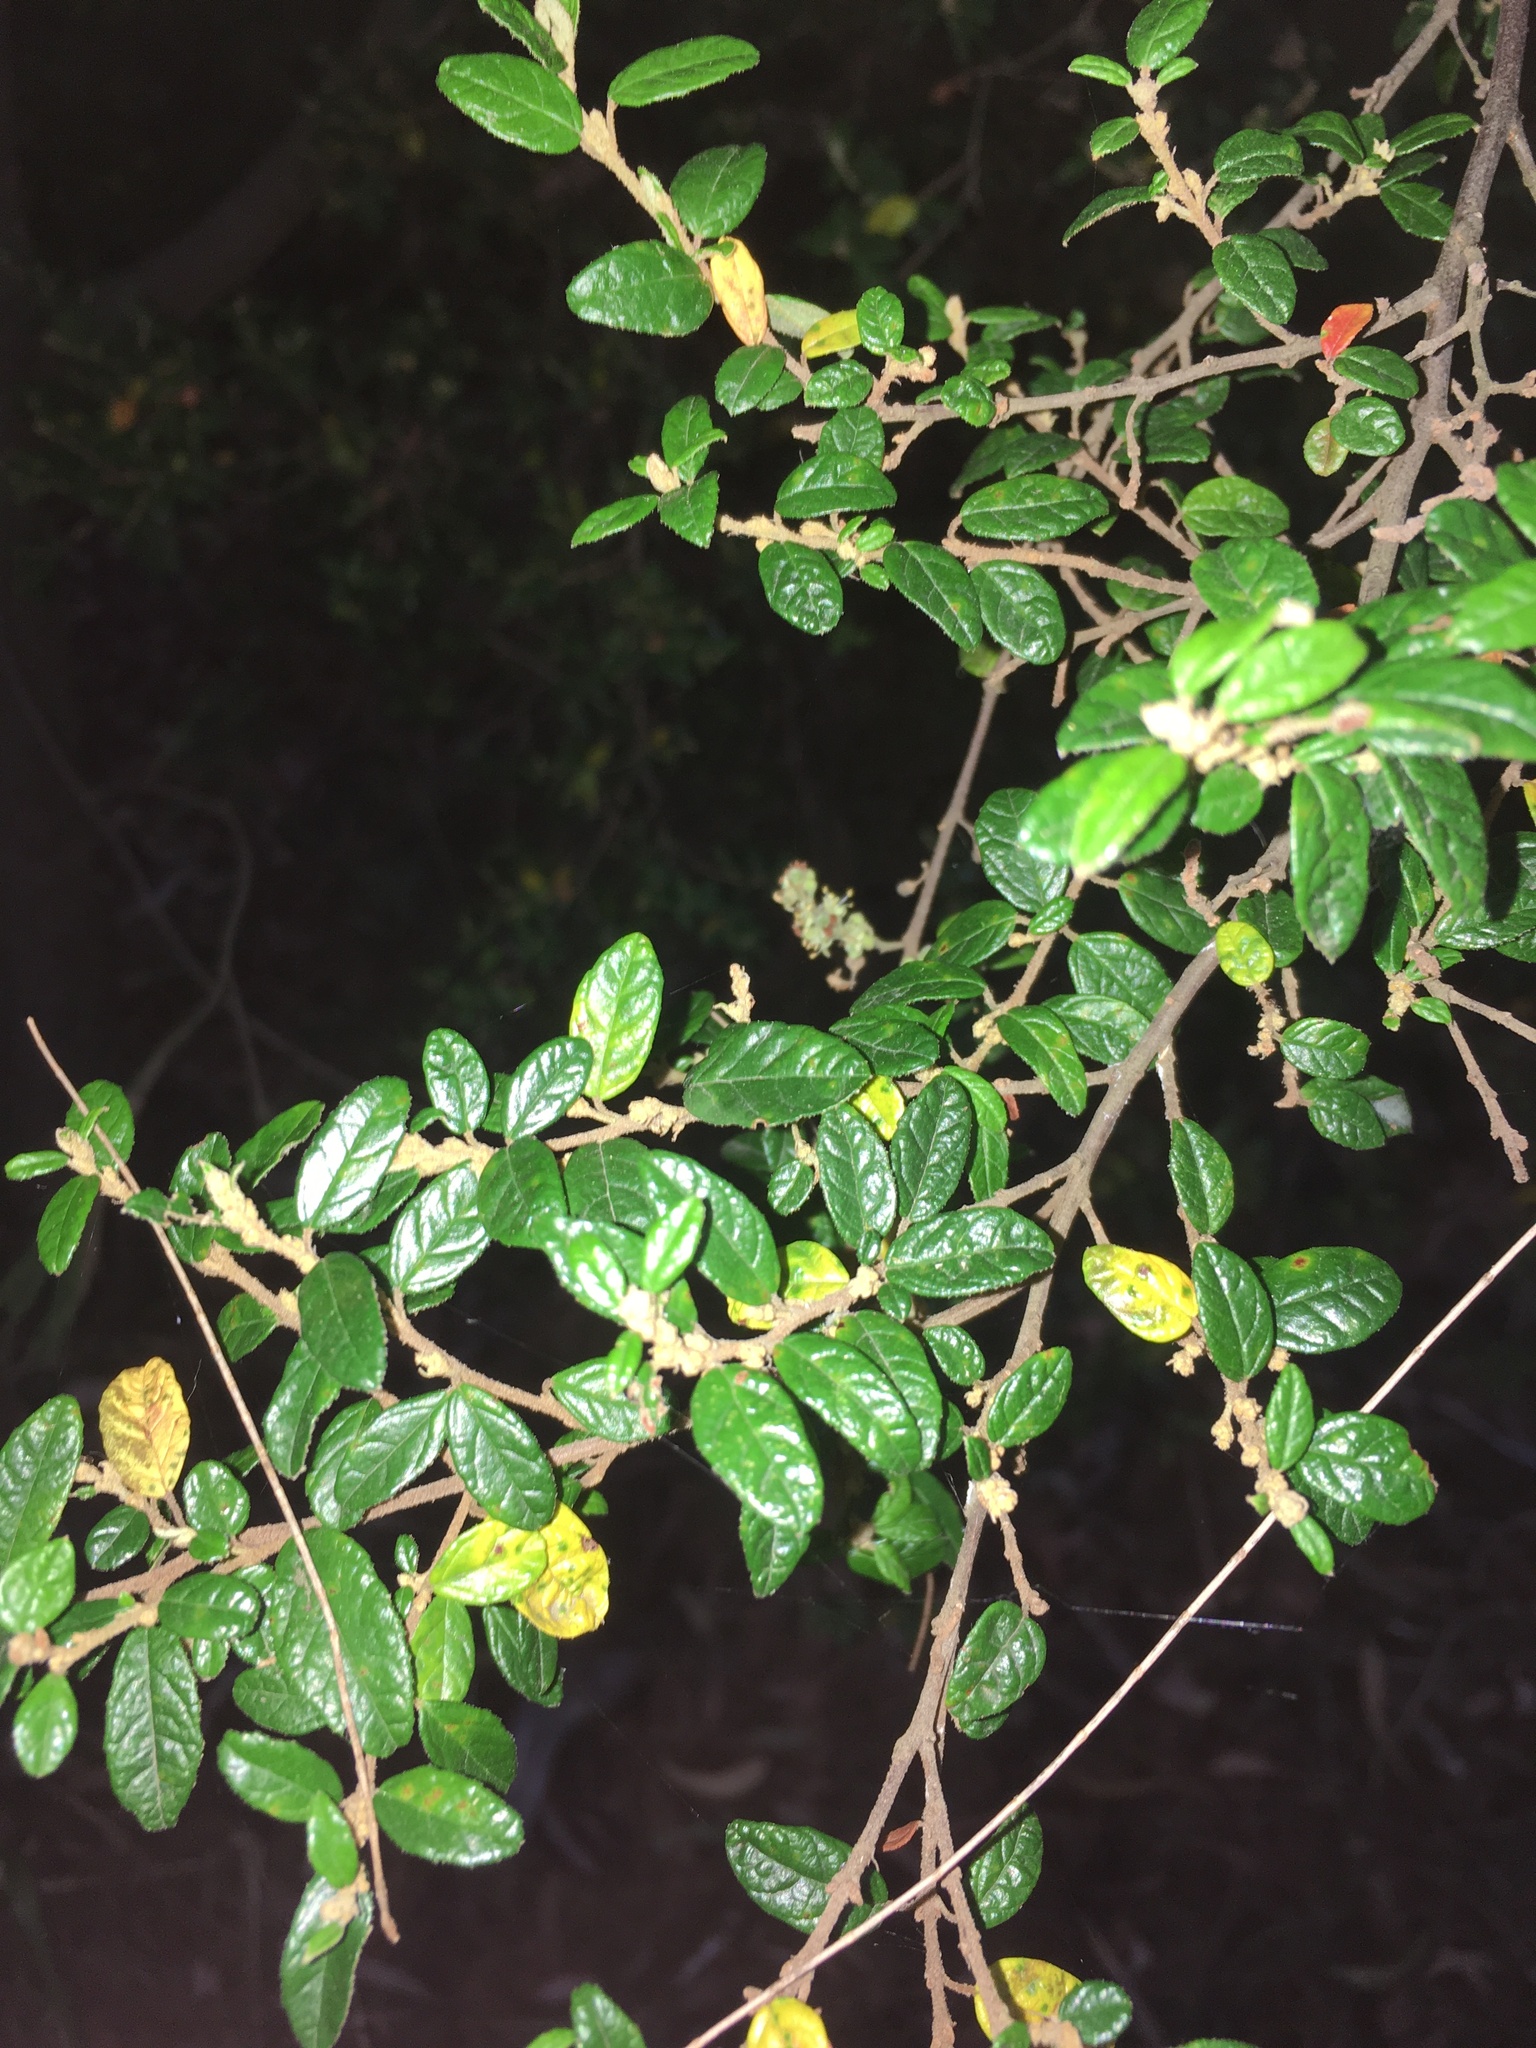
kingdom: Plantae
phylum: Tracheophyta
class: Magnoliopsida
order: Rosales
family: Rhamnaceae
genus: Pomaderris
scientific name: Pomaderris racemosa
